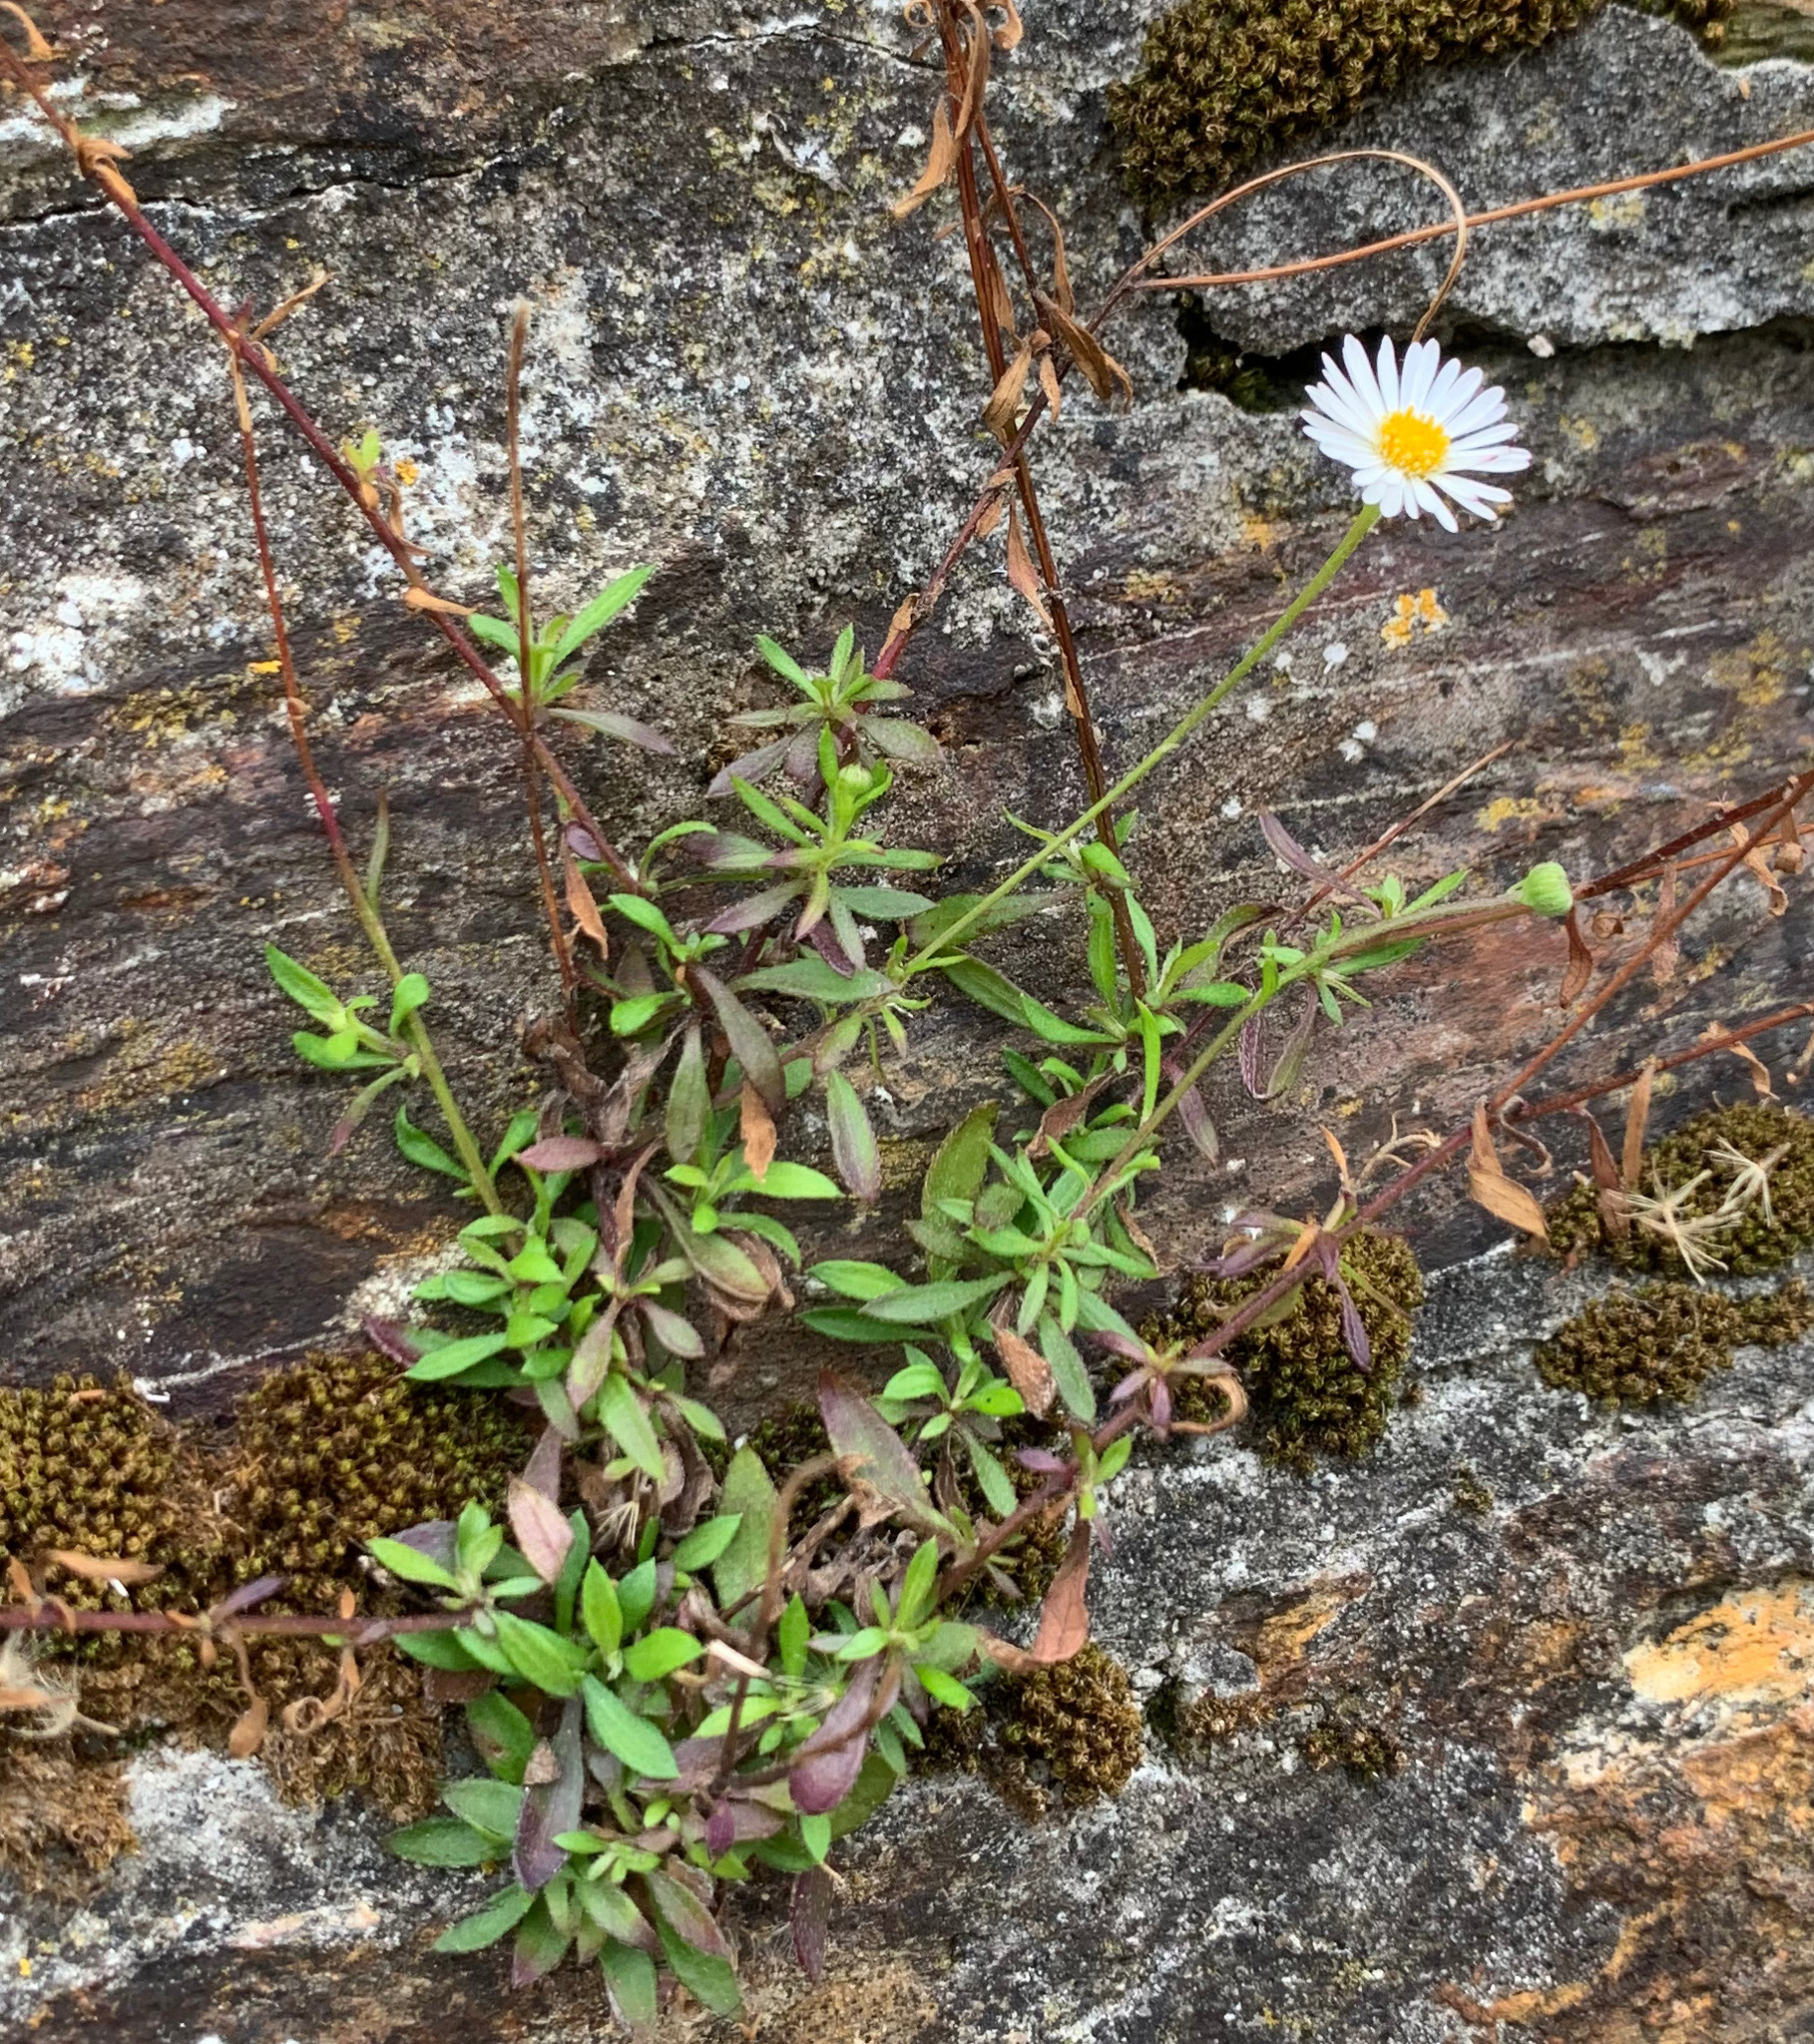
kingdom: Plantae
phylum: Tracheophyta
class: Magnoliopsida
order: Asterales
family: Asteraceae
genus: Erigeron
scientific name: Erigeron karvinskianus
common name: Mexican fleabane
